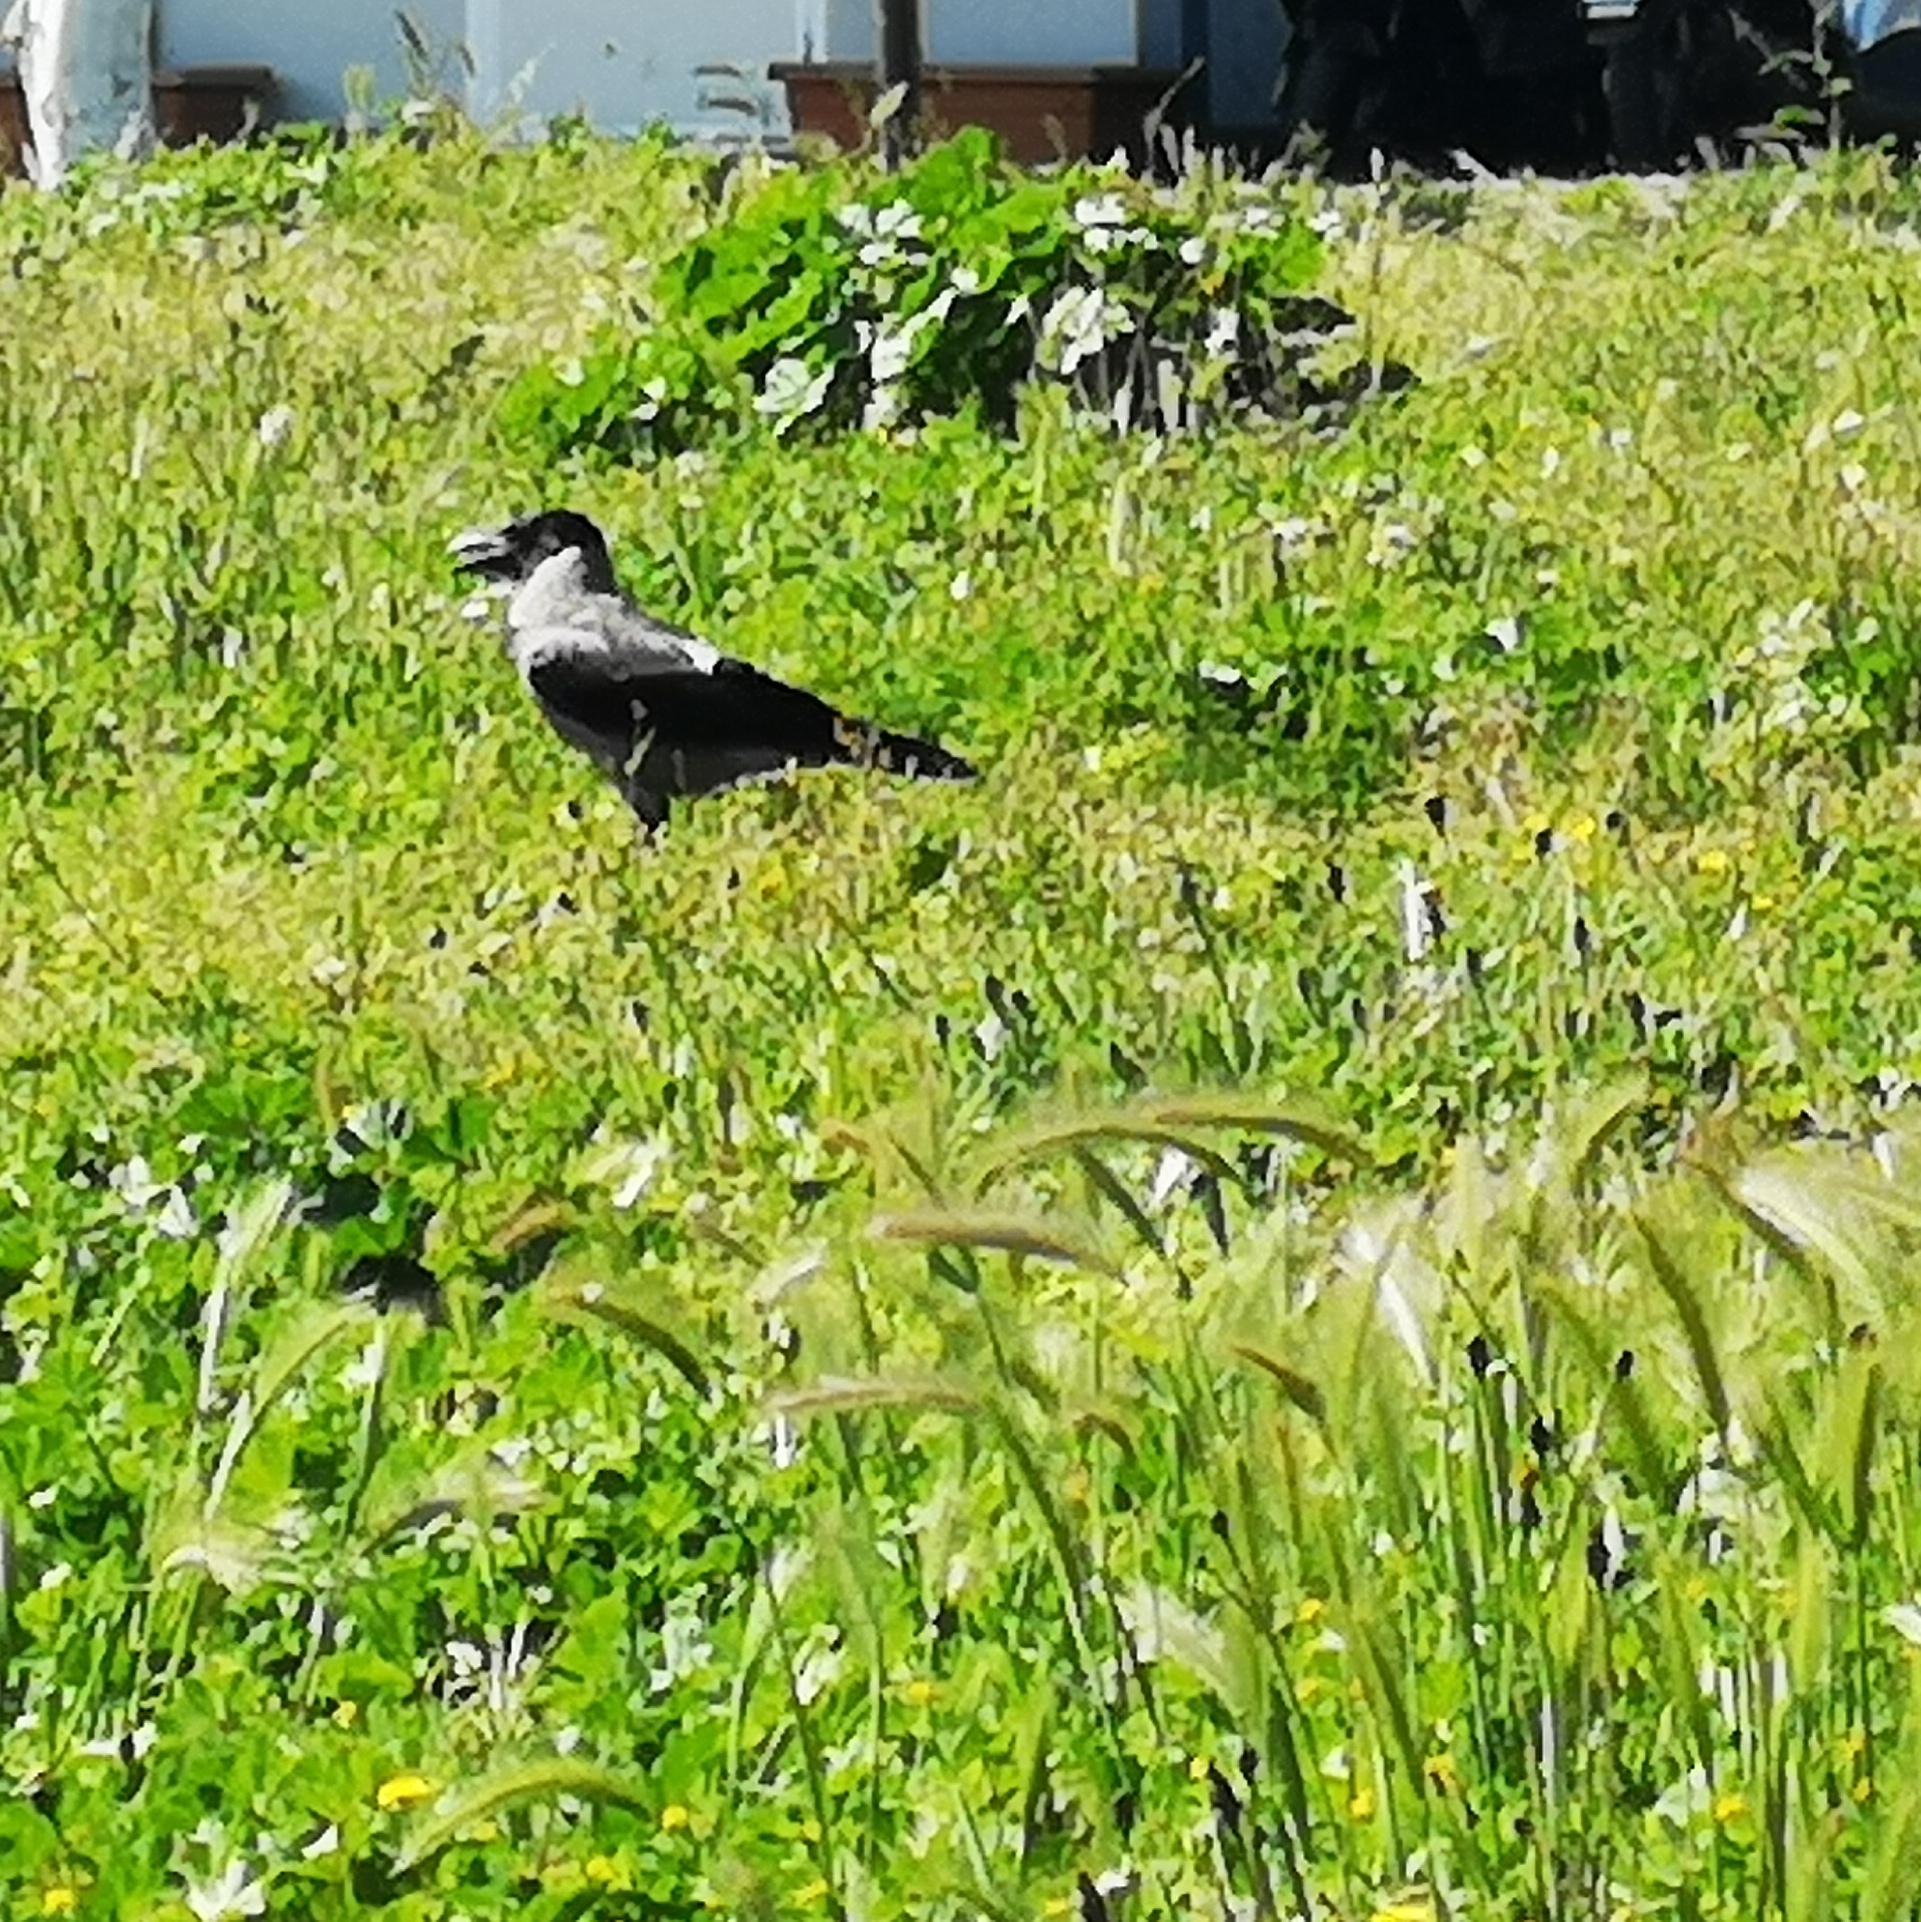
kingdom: Animalia
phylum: Chordata
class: Aves
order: Passeriformes
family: Corvidae
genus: Corvus
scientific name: Corvus cornix
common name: Hooded crow
